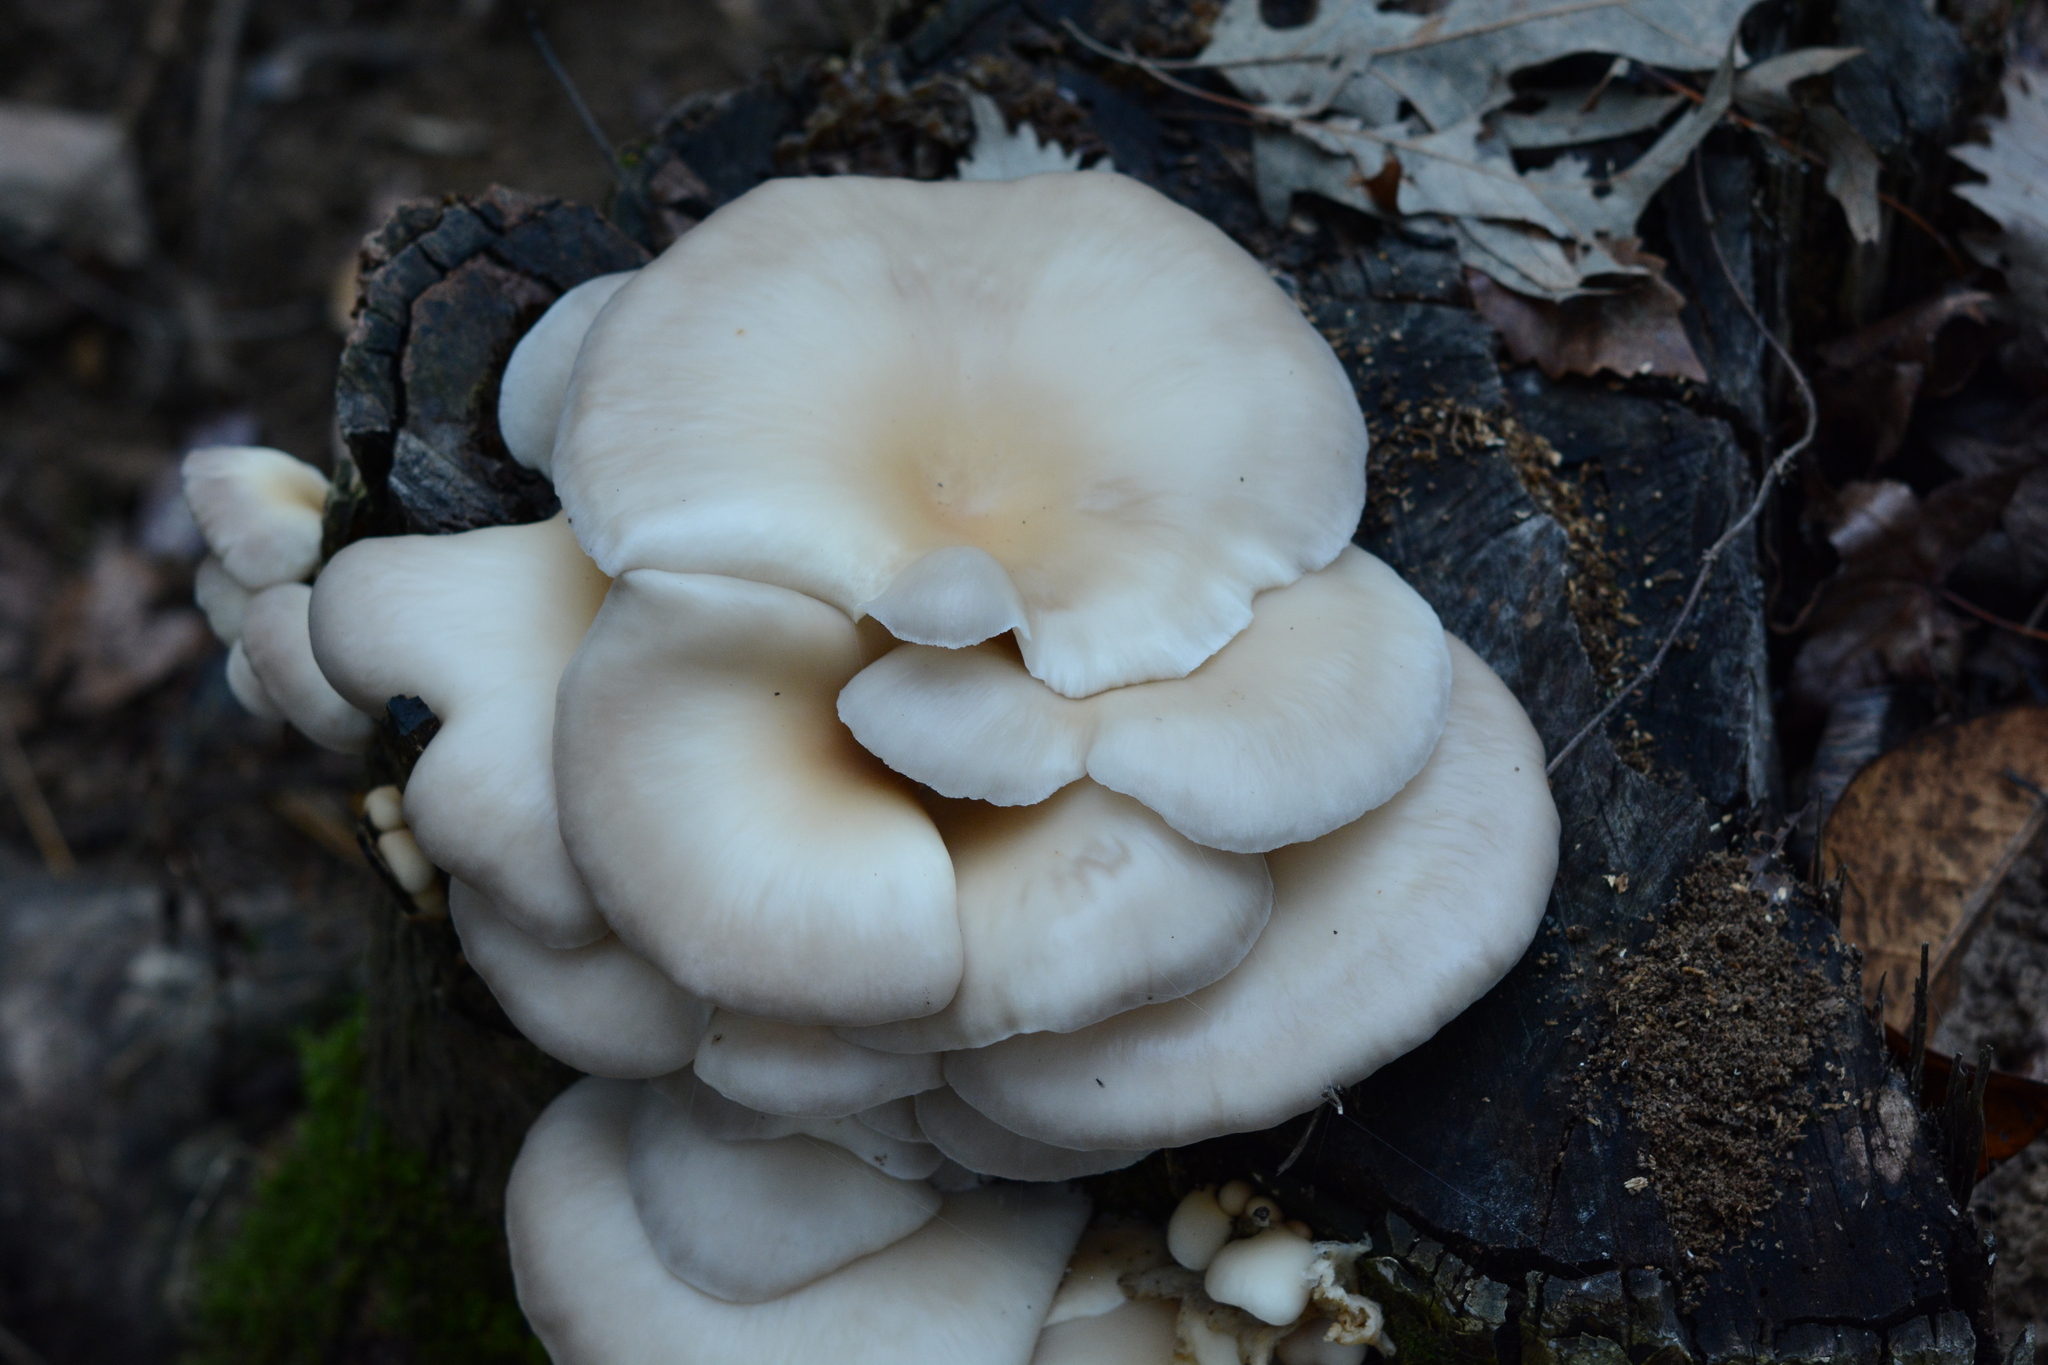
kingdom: Fungi
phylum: Basidiomycota
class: Agaricomycetes
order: Agaricales
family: Pleurotaceae
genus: Pleurotus
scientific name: Pleurotus ostreatus
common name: Oyster mushroom
